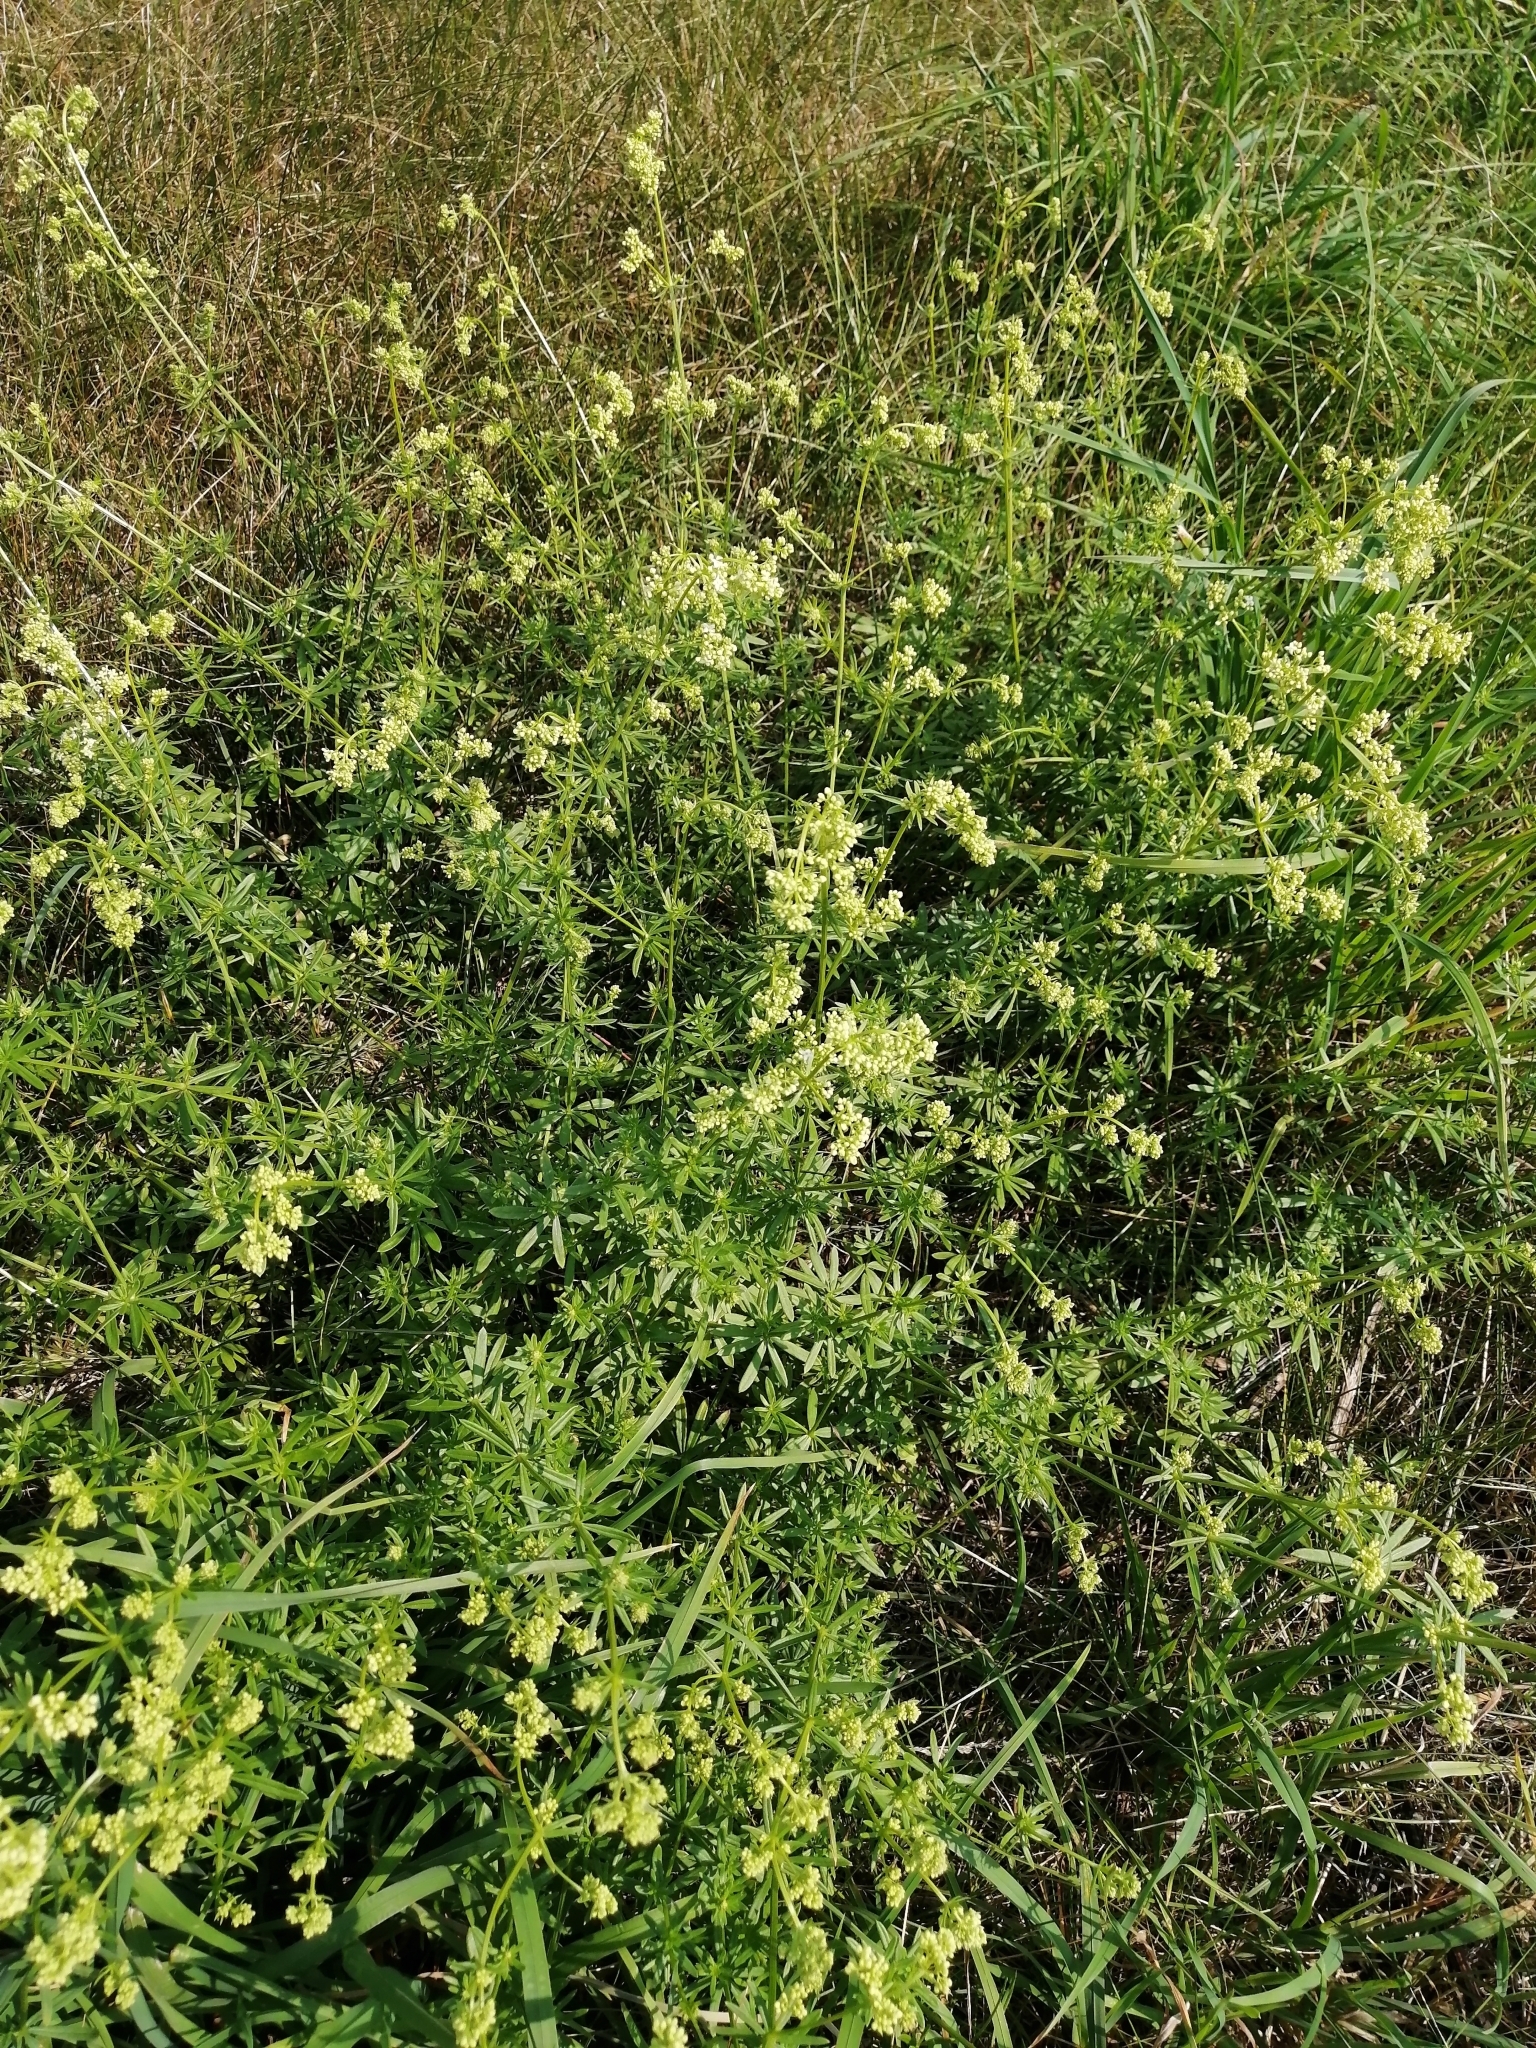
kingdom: Plantae
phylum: Tracheophyta
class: Magnoliopsida
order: Gentianales
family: Rubiaceae
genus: Galium
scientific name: Galium mollugo
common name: Hedge bedstraw
